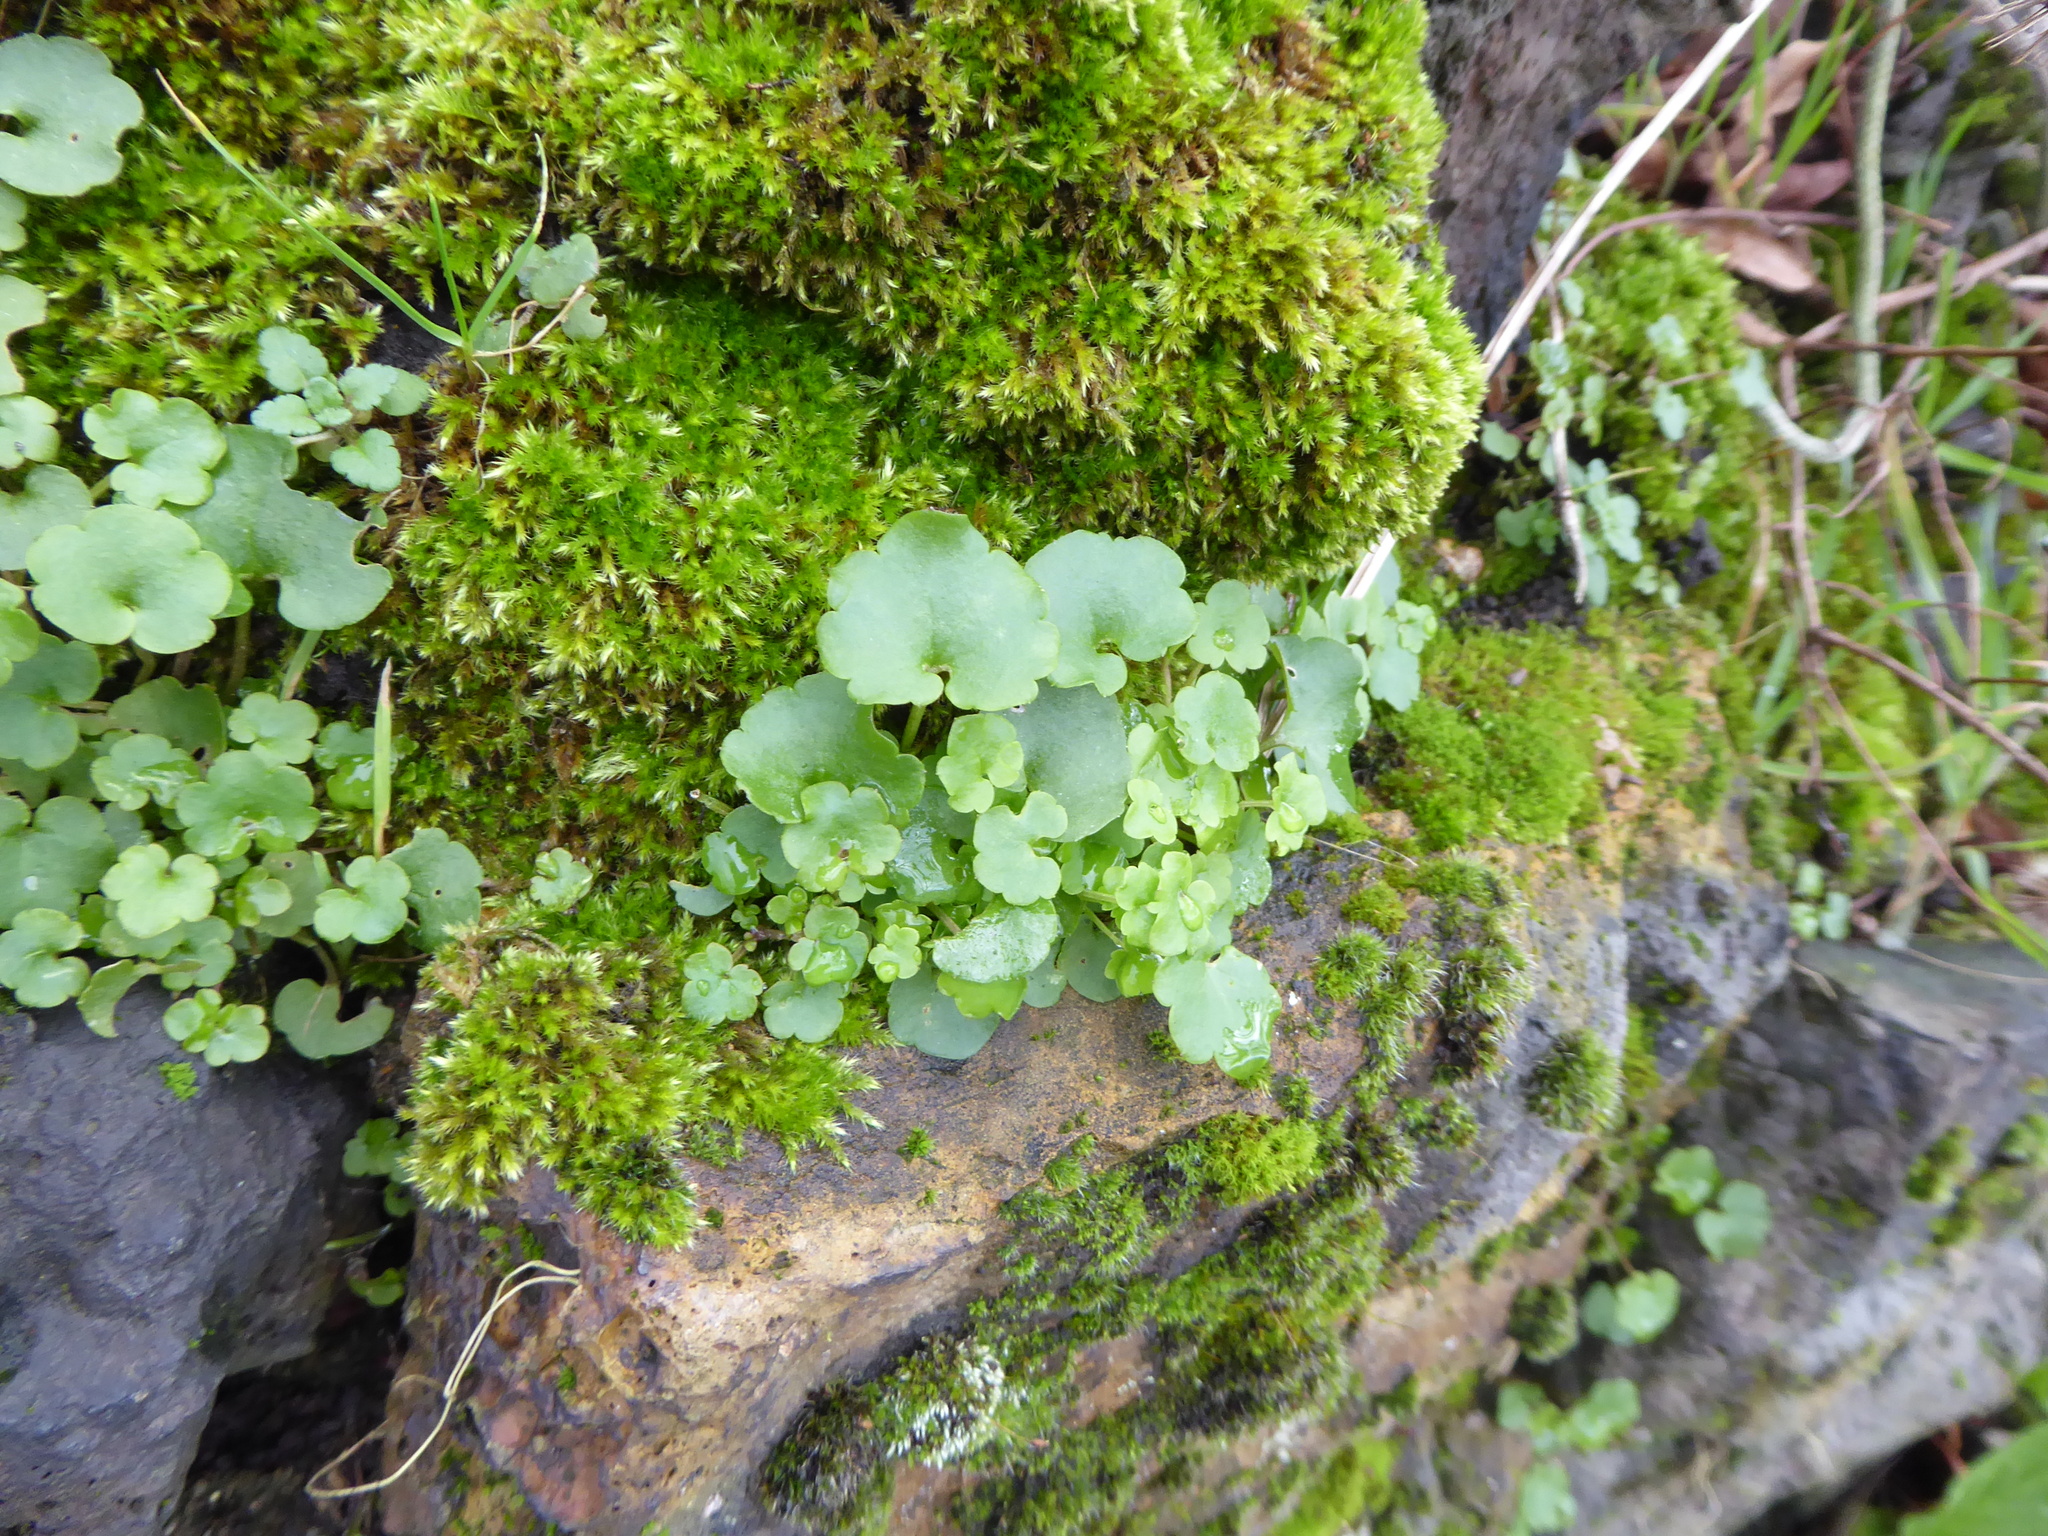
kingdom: Plantae
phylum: Tracheophyta
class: Magnoliopsida
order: Lamiales
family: Plantaginaceae
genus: Cymbalaria
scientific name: Cymbalaria muralis
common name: Ivy-leaved toadflax
